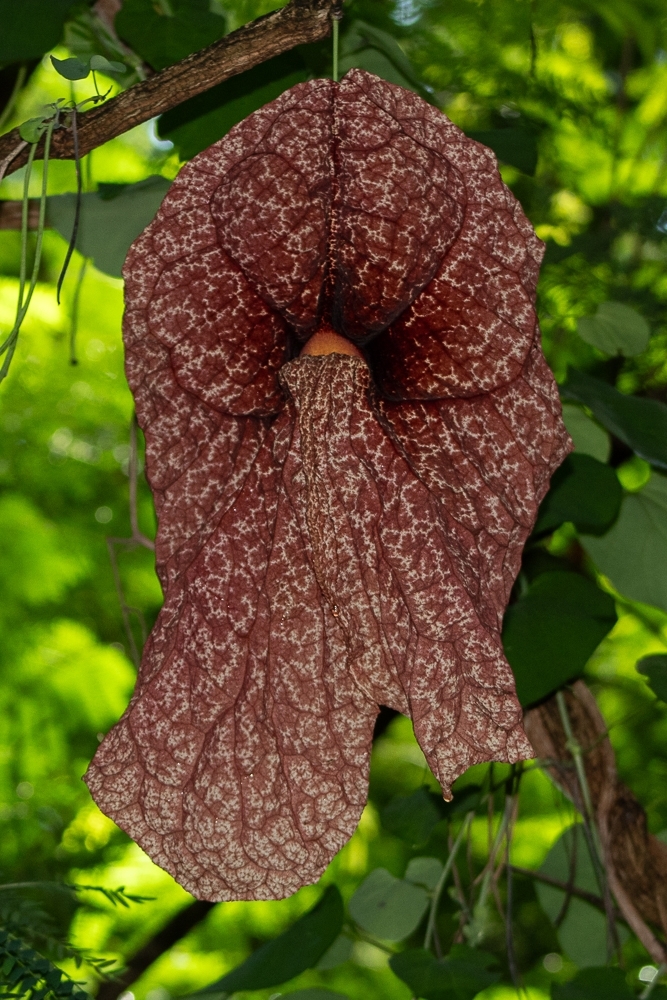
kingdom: Plantae
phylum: Tracheophyta
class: Magnoliopsida
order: Piperales
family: Aristolochiaceae
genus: Aristolochia
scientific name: Aristolochia gigantea
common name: Duckflower
